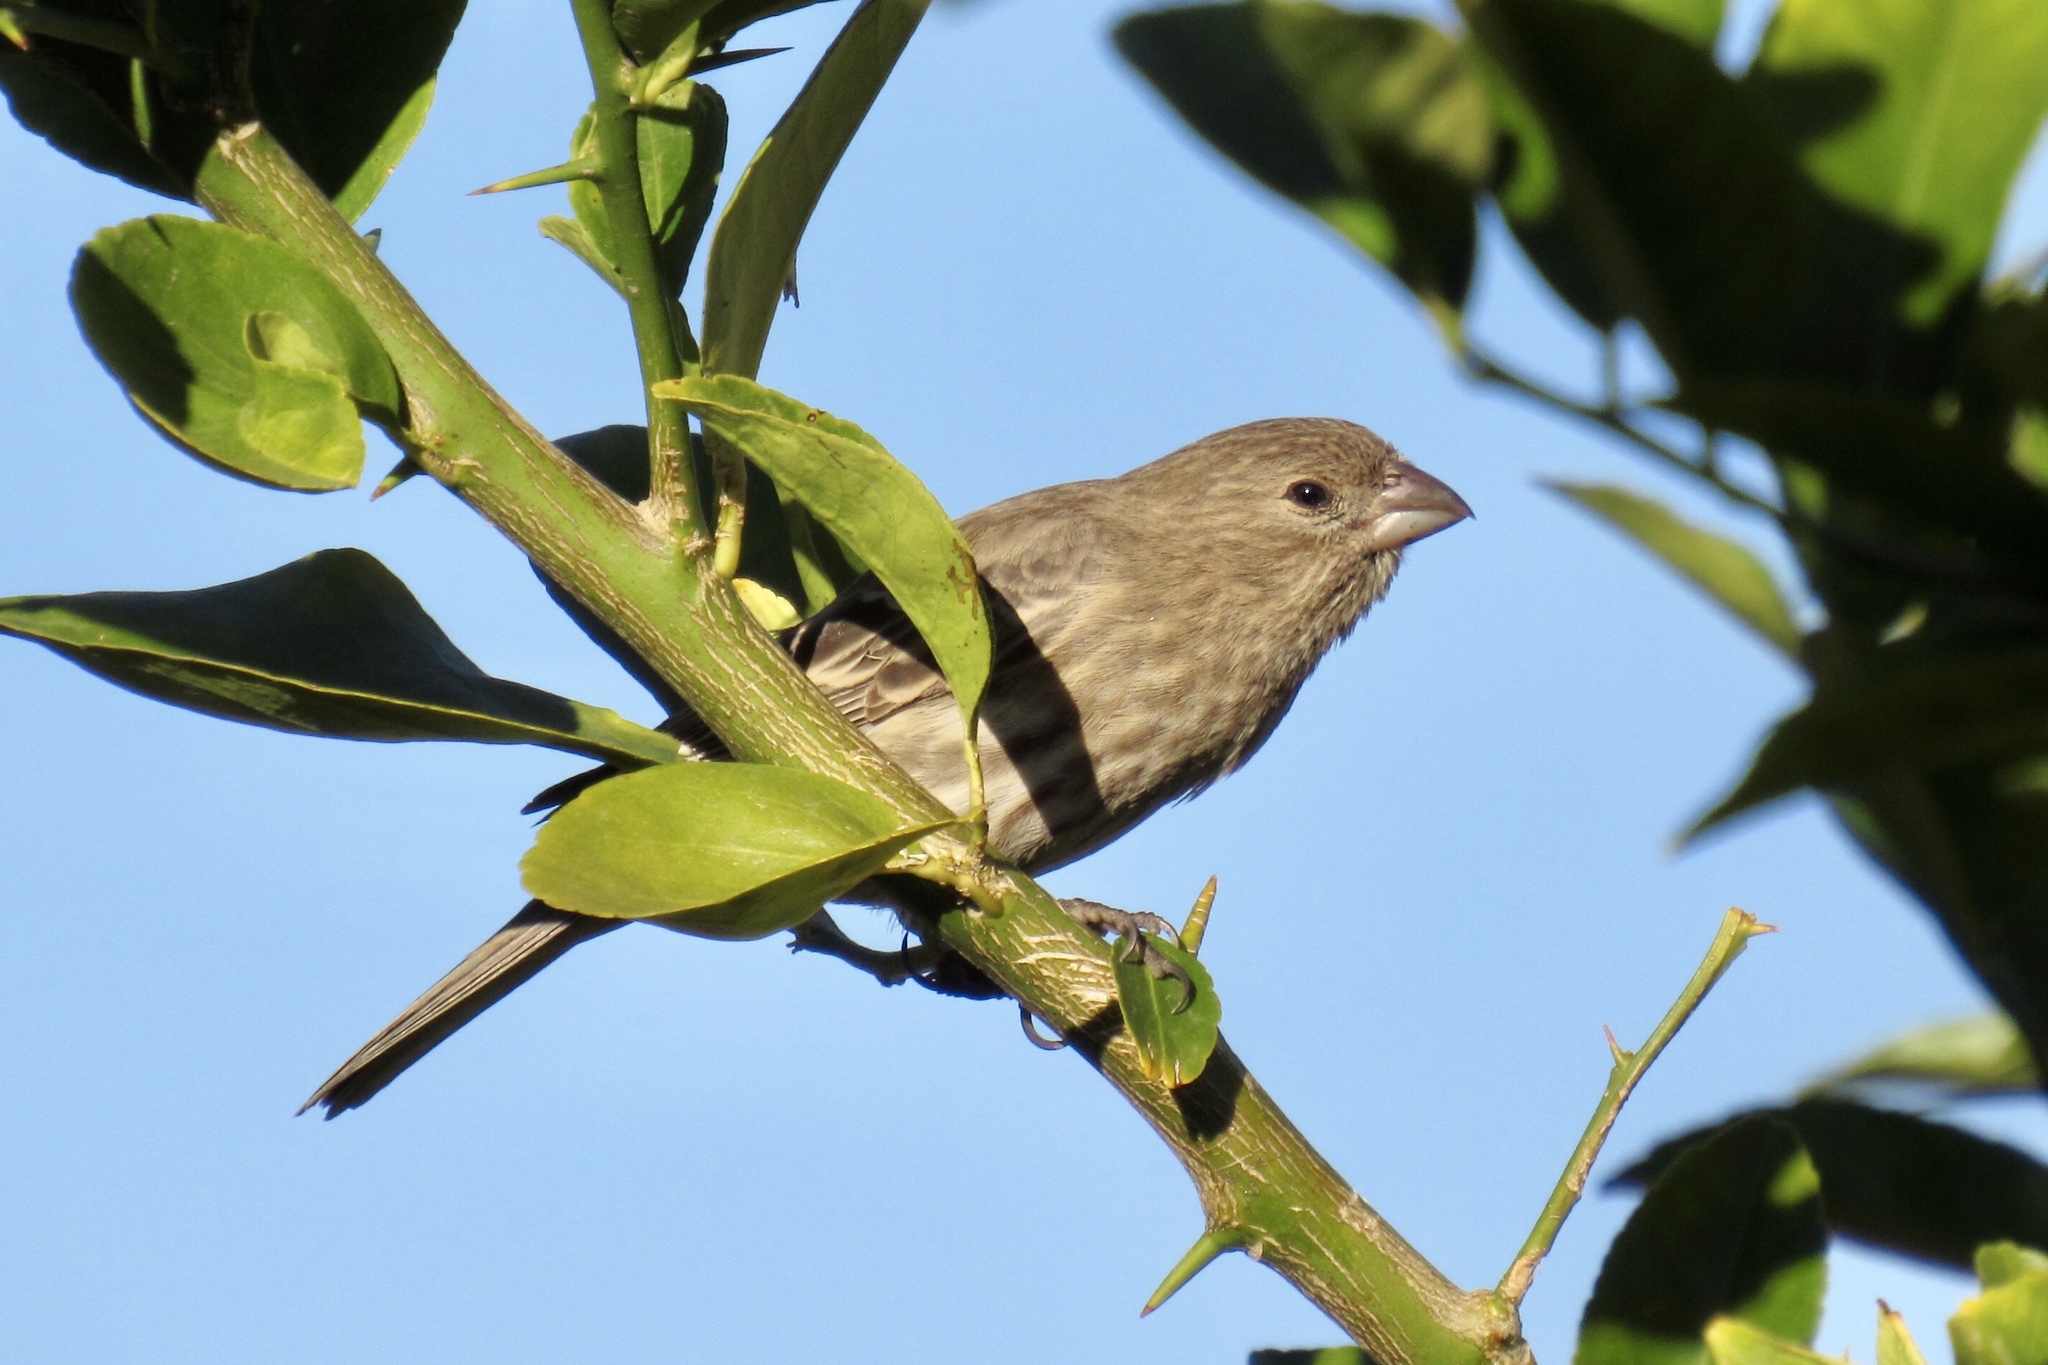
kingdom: Animalia
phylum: Chordata
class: Aves
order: Passeriformes
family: Fringillidae
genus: Haemorhous
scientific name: Haemorhous mexicanus
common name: House finch
